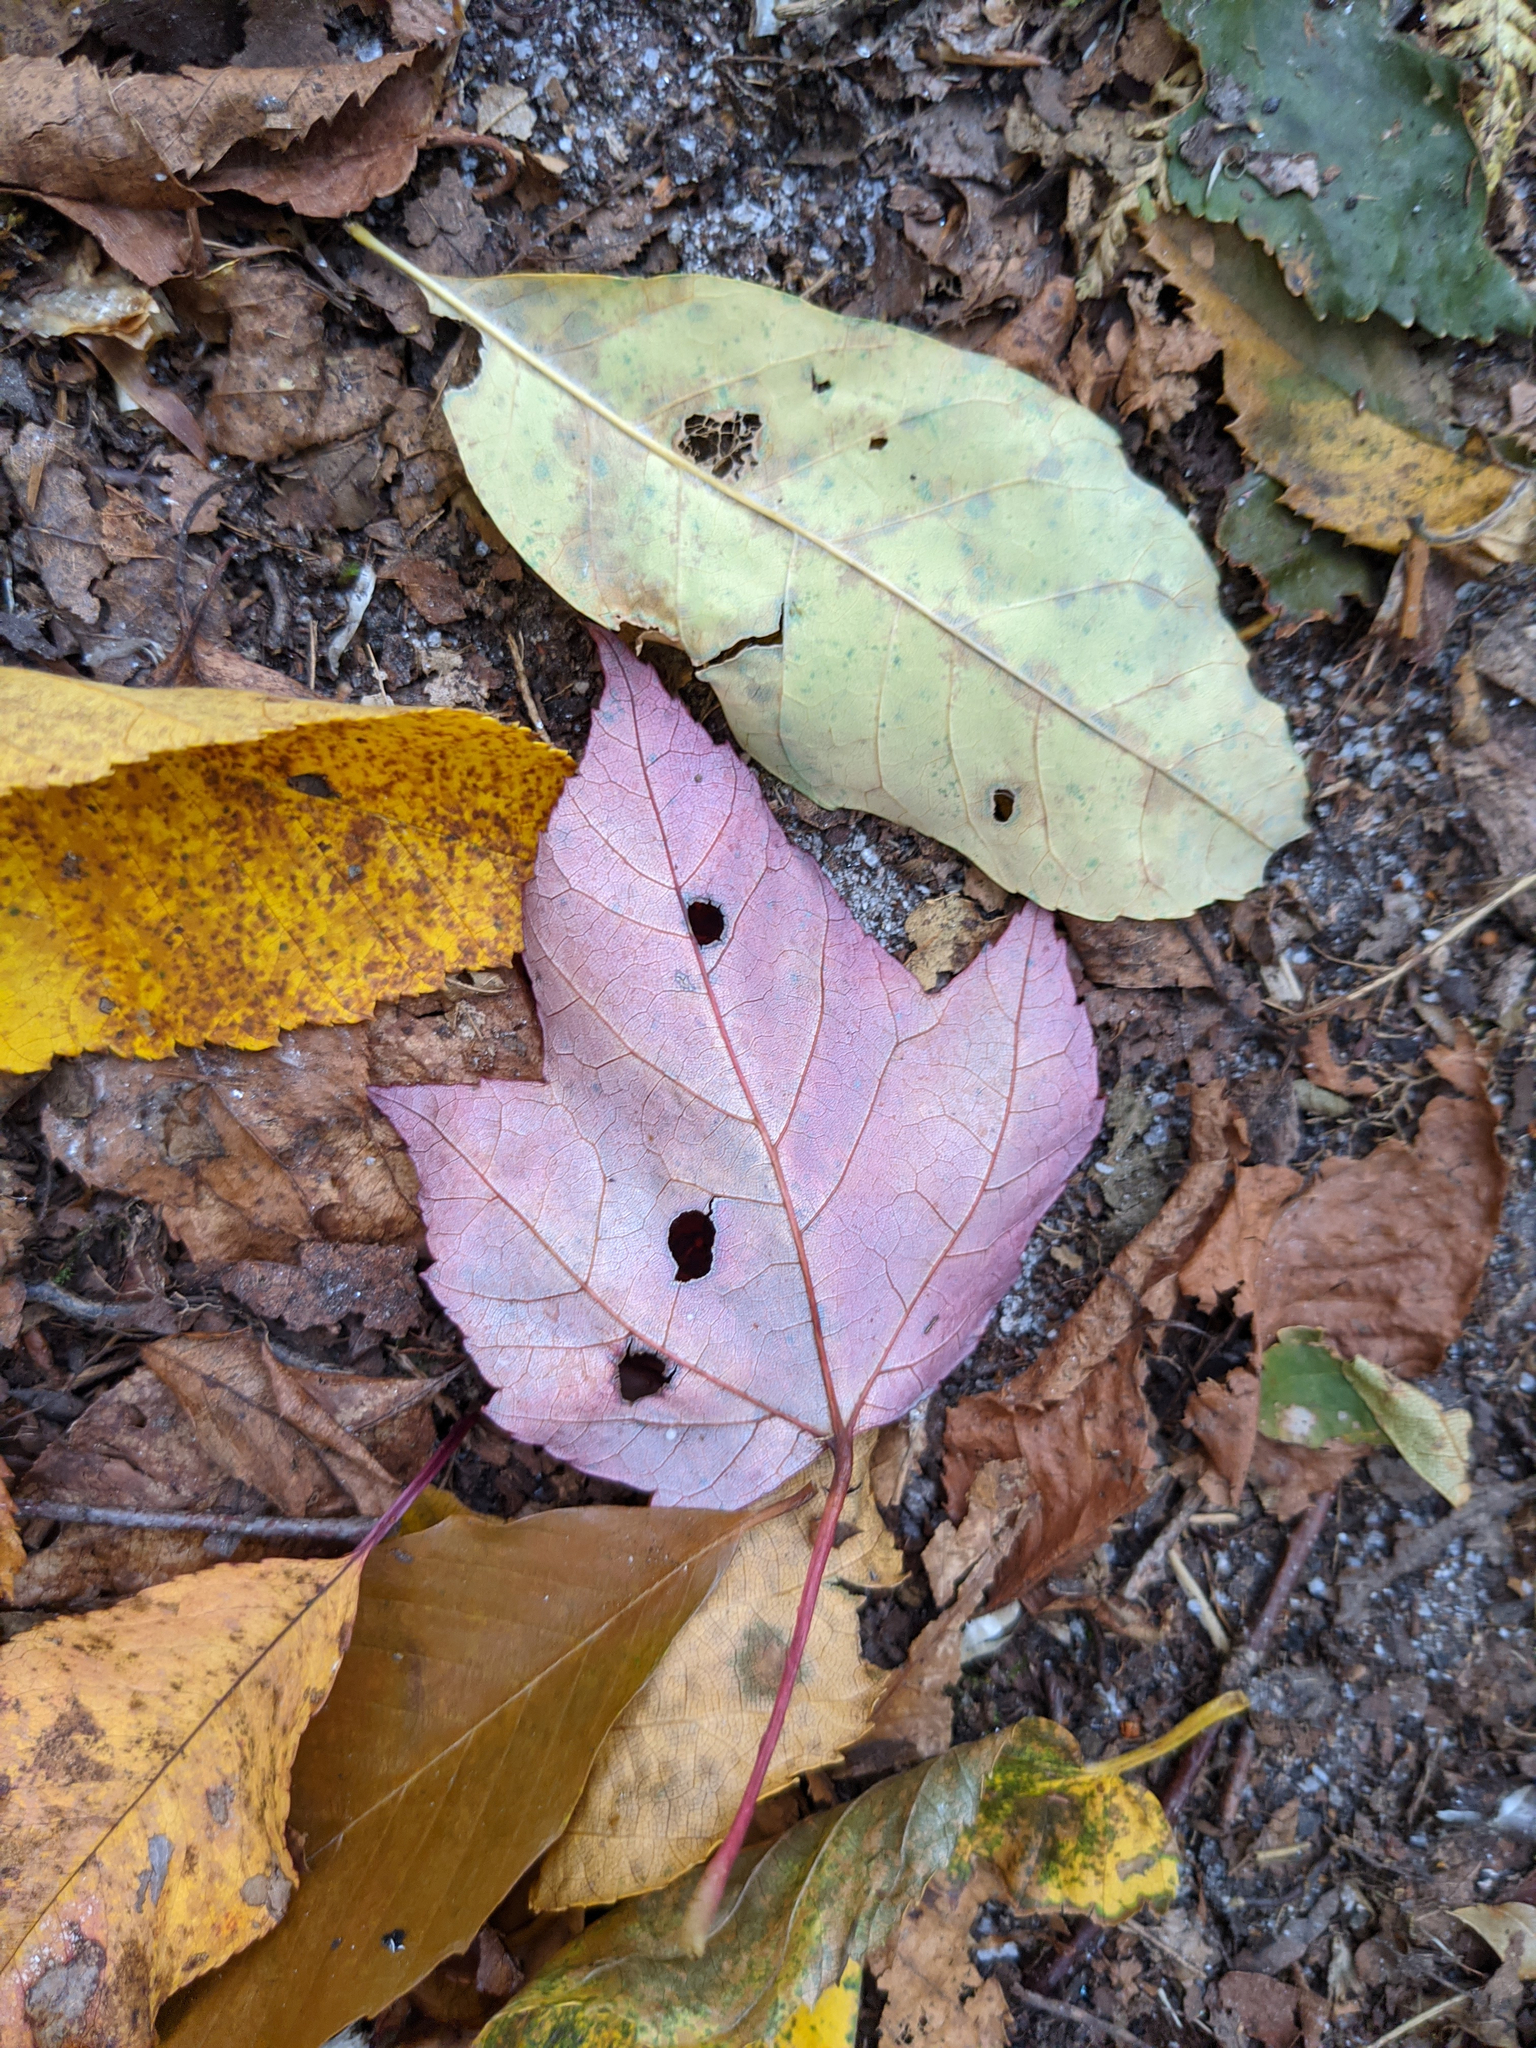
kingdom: Plantae
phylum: Tracheophyta
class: Magnoliopsida
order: Sapindales
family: Sapindaceae
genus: Acer
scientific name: Acer rubrum
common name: Red maple
